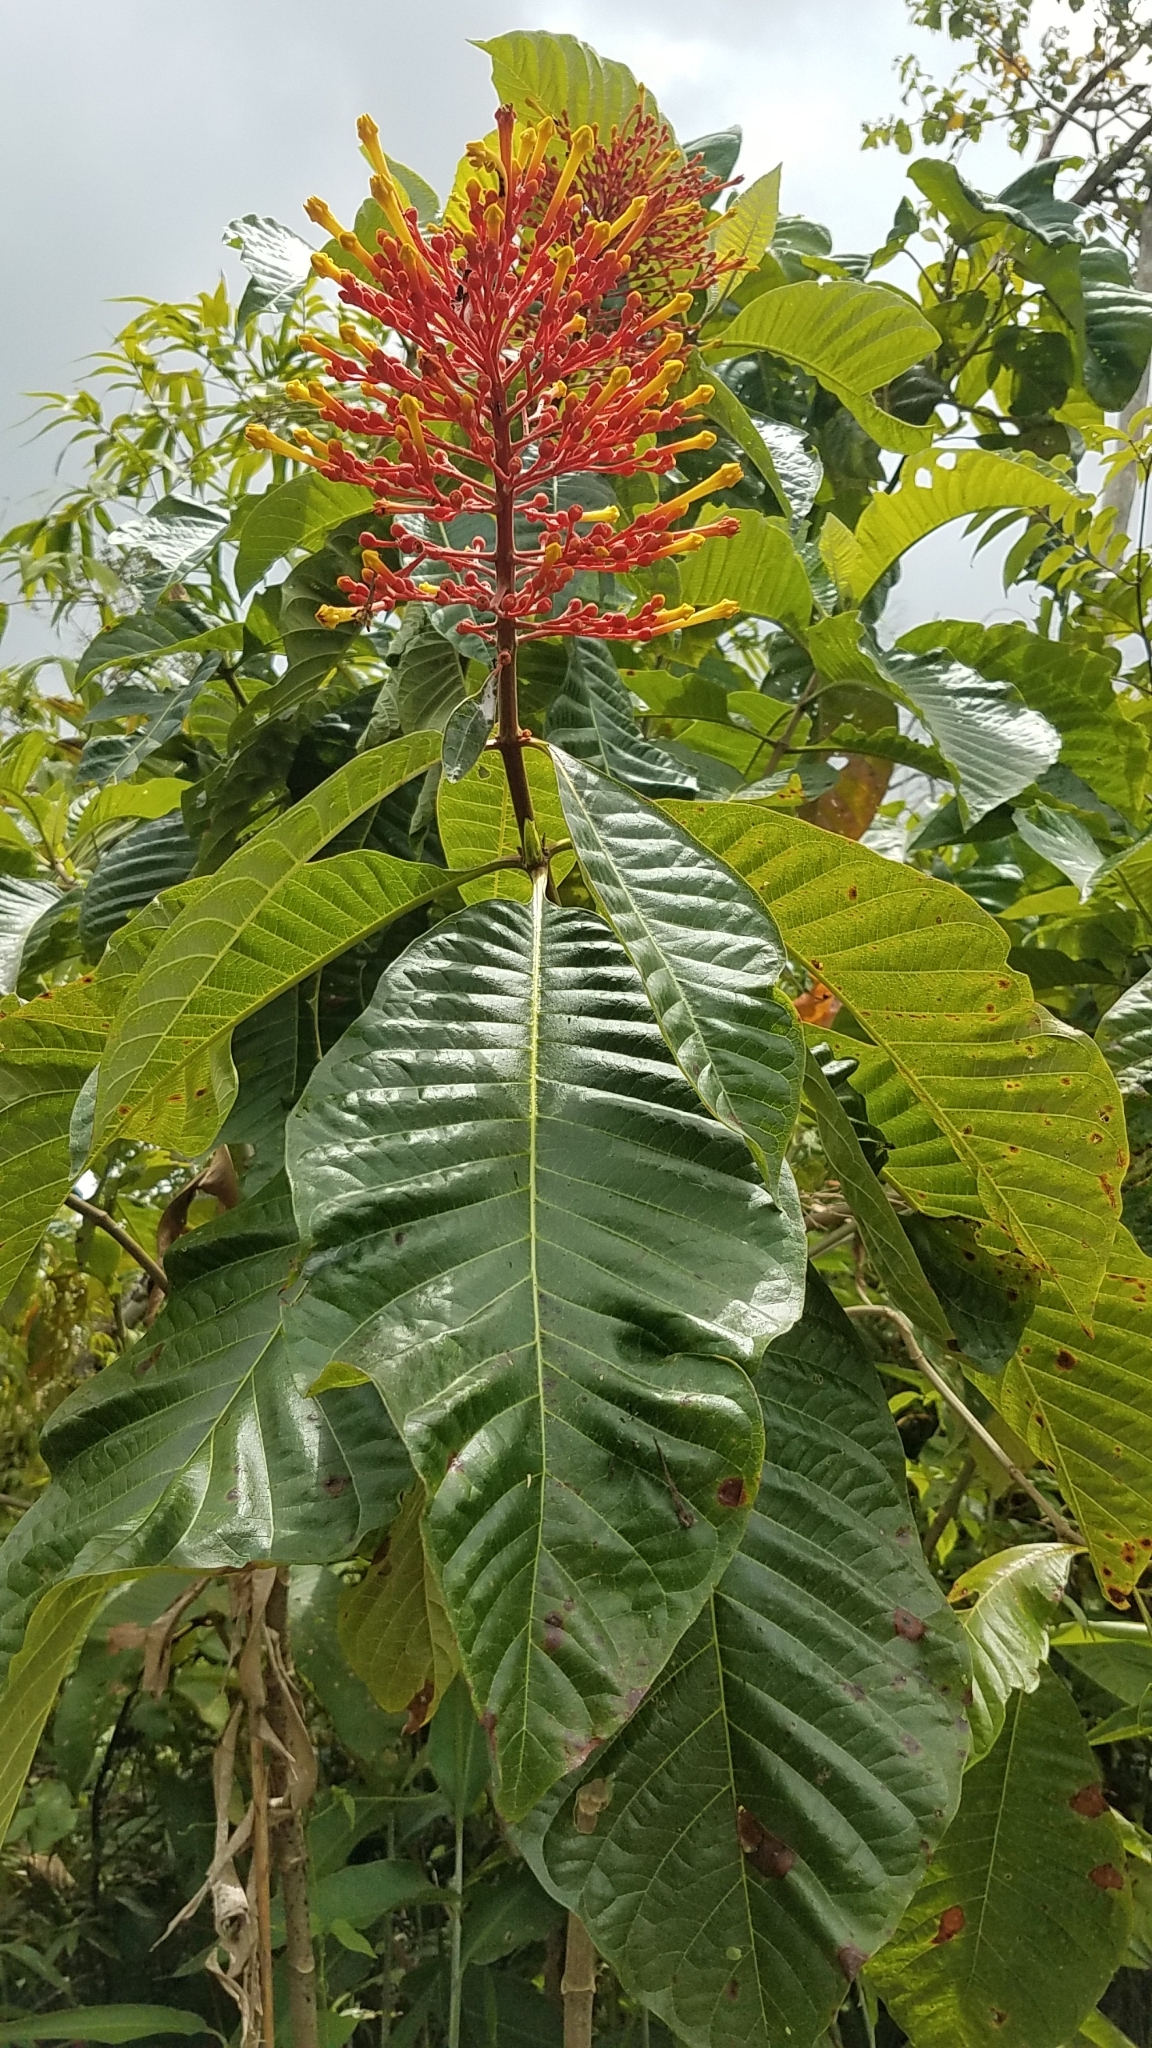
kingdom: Plantae
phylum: Tracheophyta
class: Magnoliopsida
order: Gentianales
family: Rubiaceae
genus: Isertia
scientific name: Isertia haenkeana
